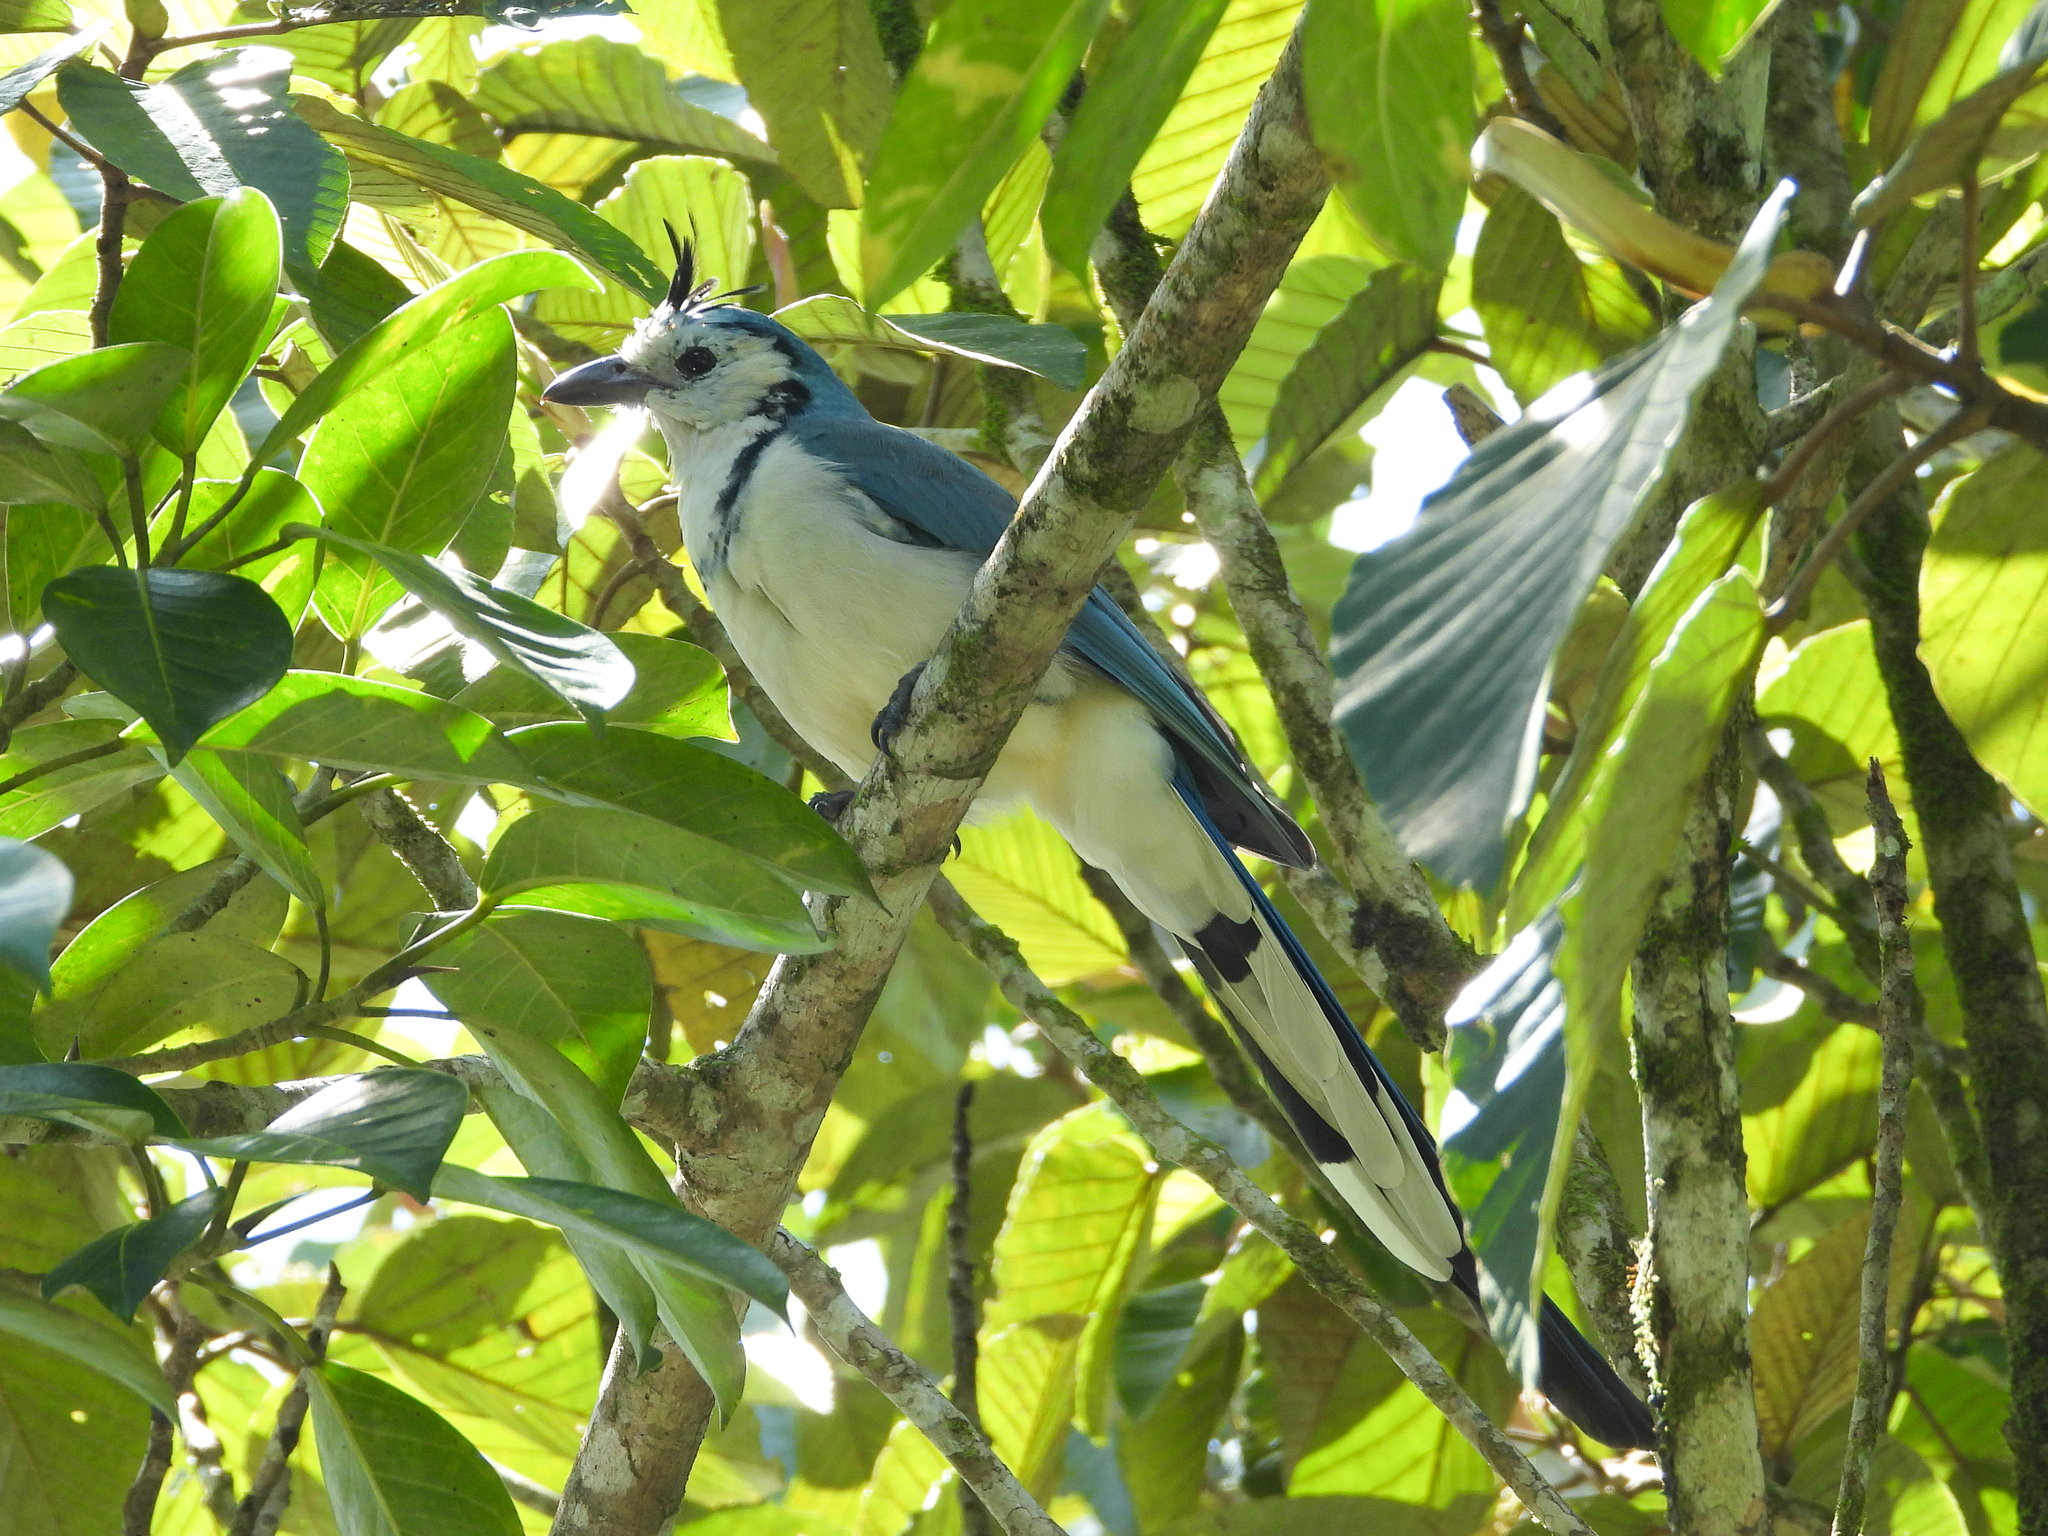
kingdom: Animalia
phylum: Chordata
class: Aves
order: Passeriformes
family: Corvidae
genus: Calocitta
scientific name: Calocitta formosa
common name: White-throated magpie-jay
